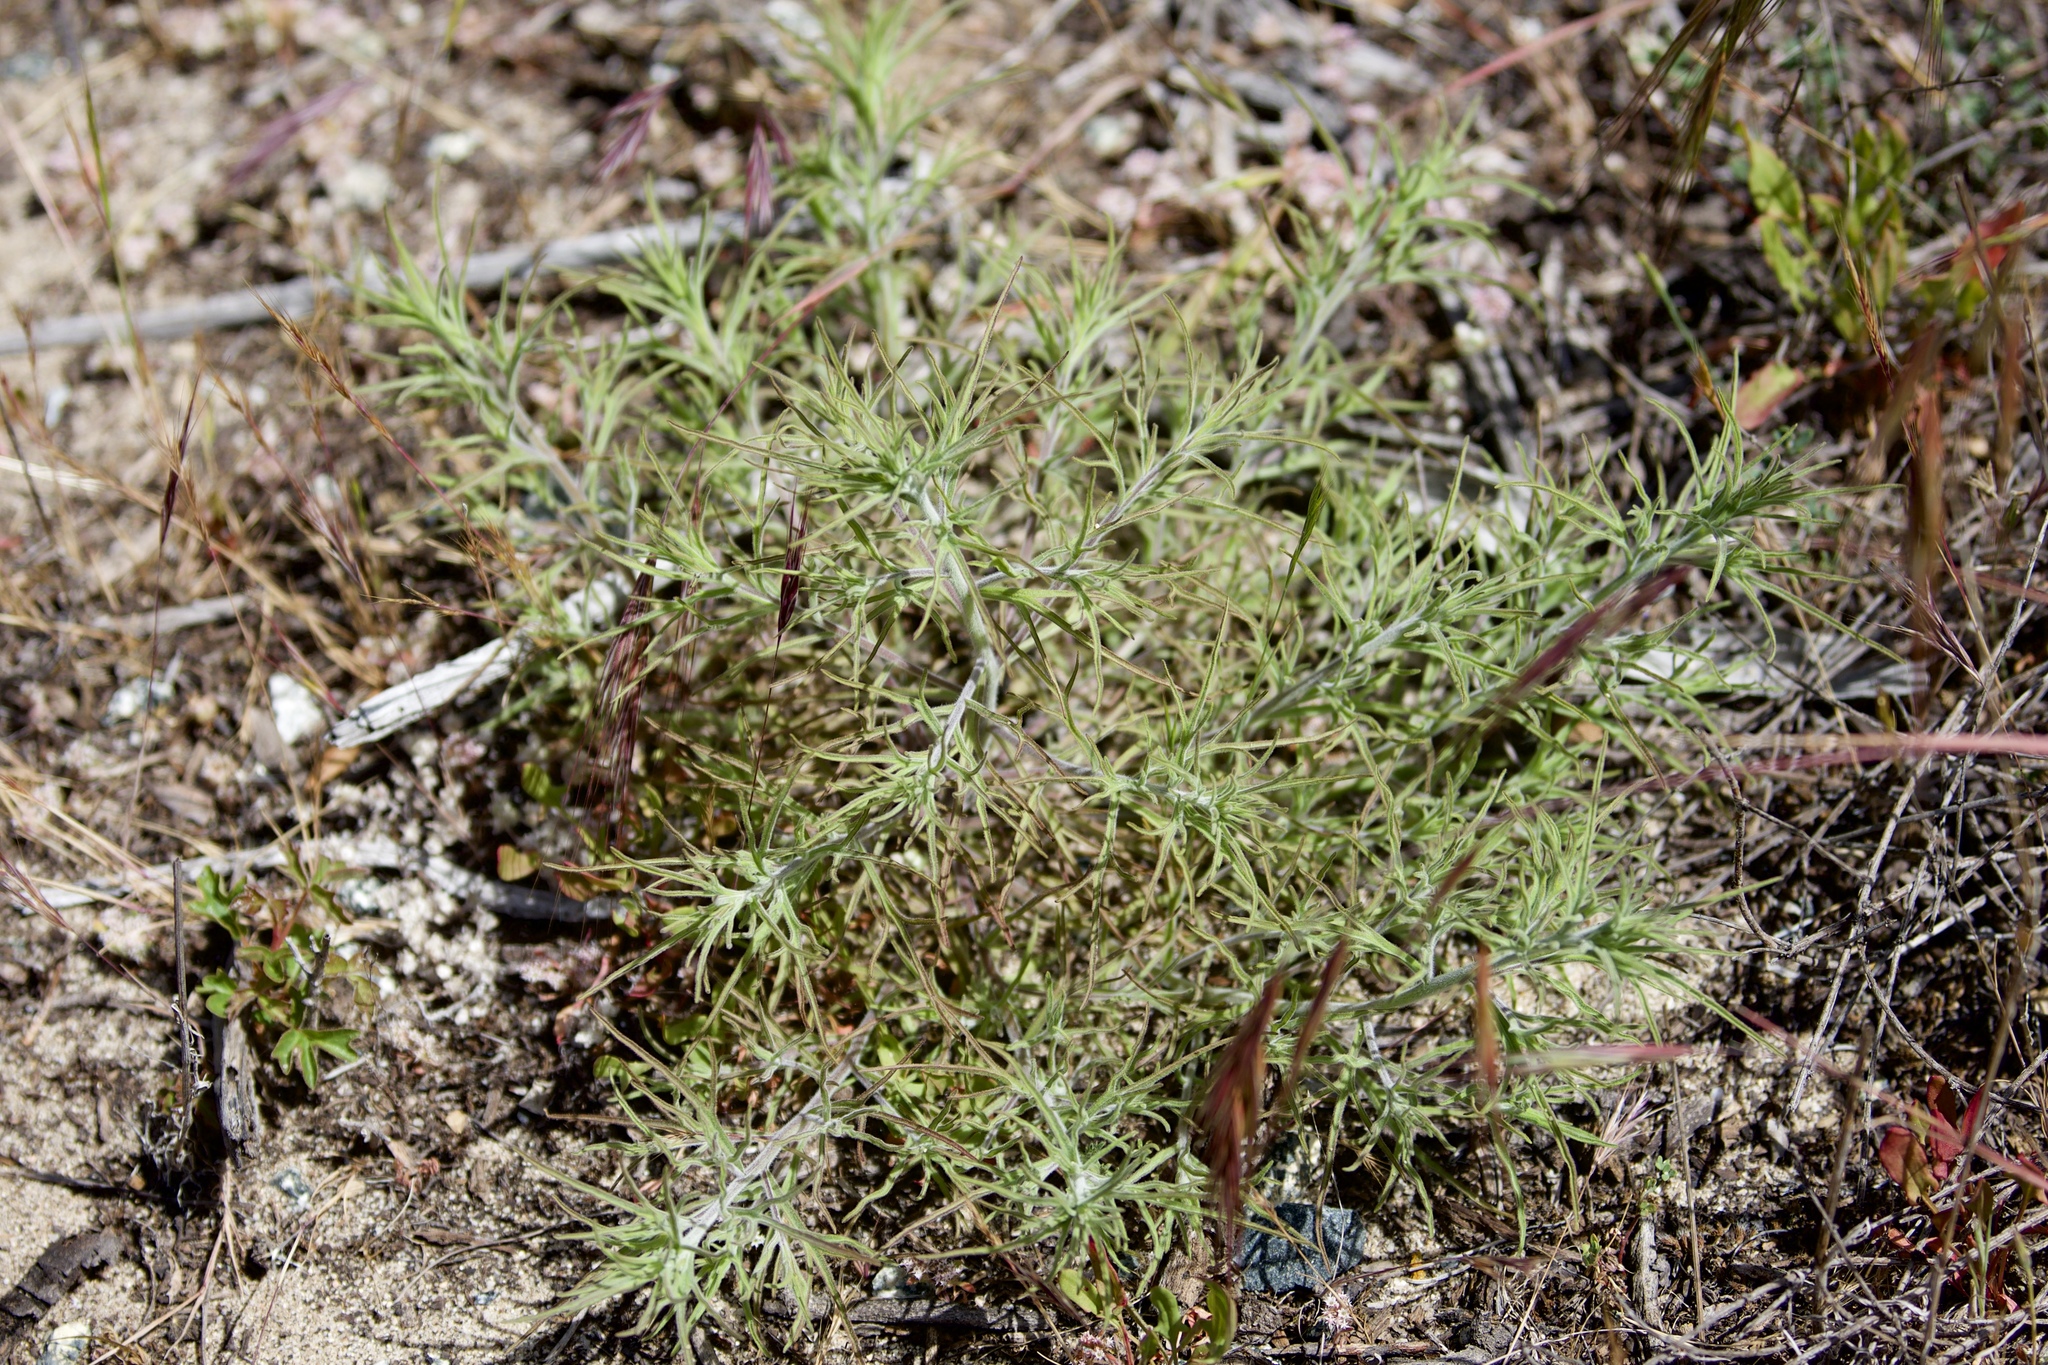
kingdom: Plantae
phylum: Tracheophyta
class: Magnoliopsida
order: Lamiales
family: Orobanchaceae
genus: Cordylanthus
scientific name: Cordylanthus rigidus
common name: Stiff-branch bird's-beak
